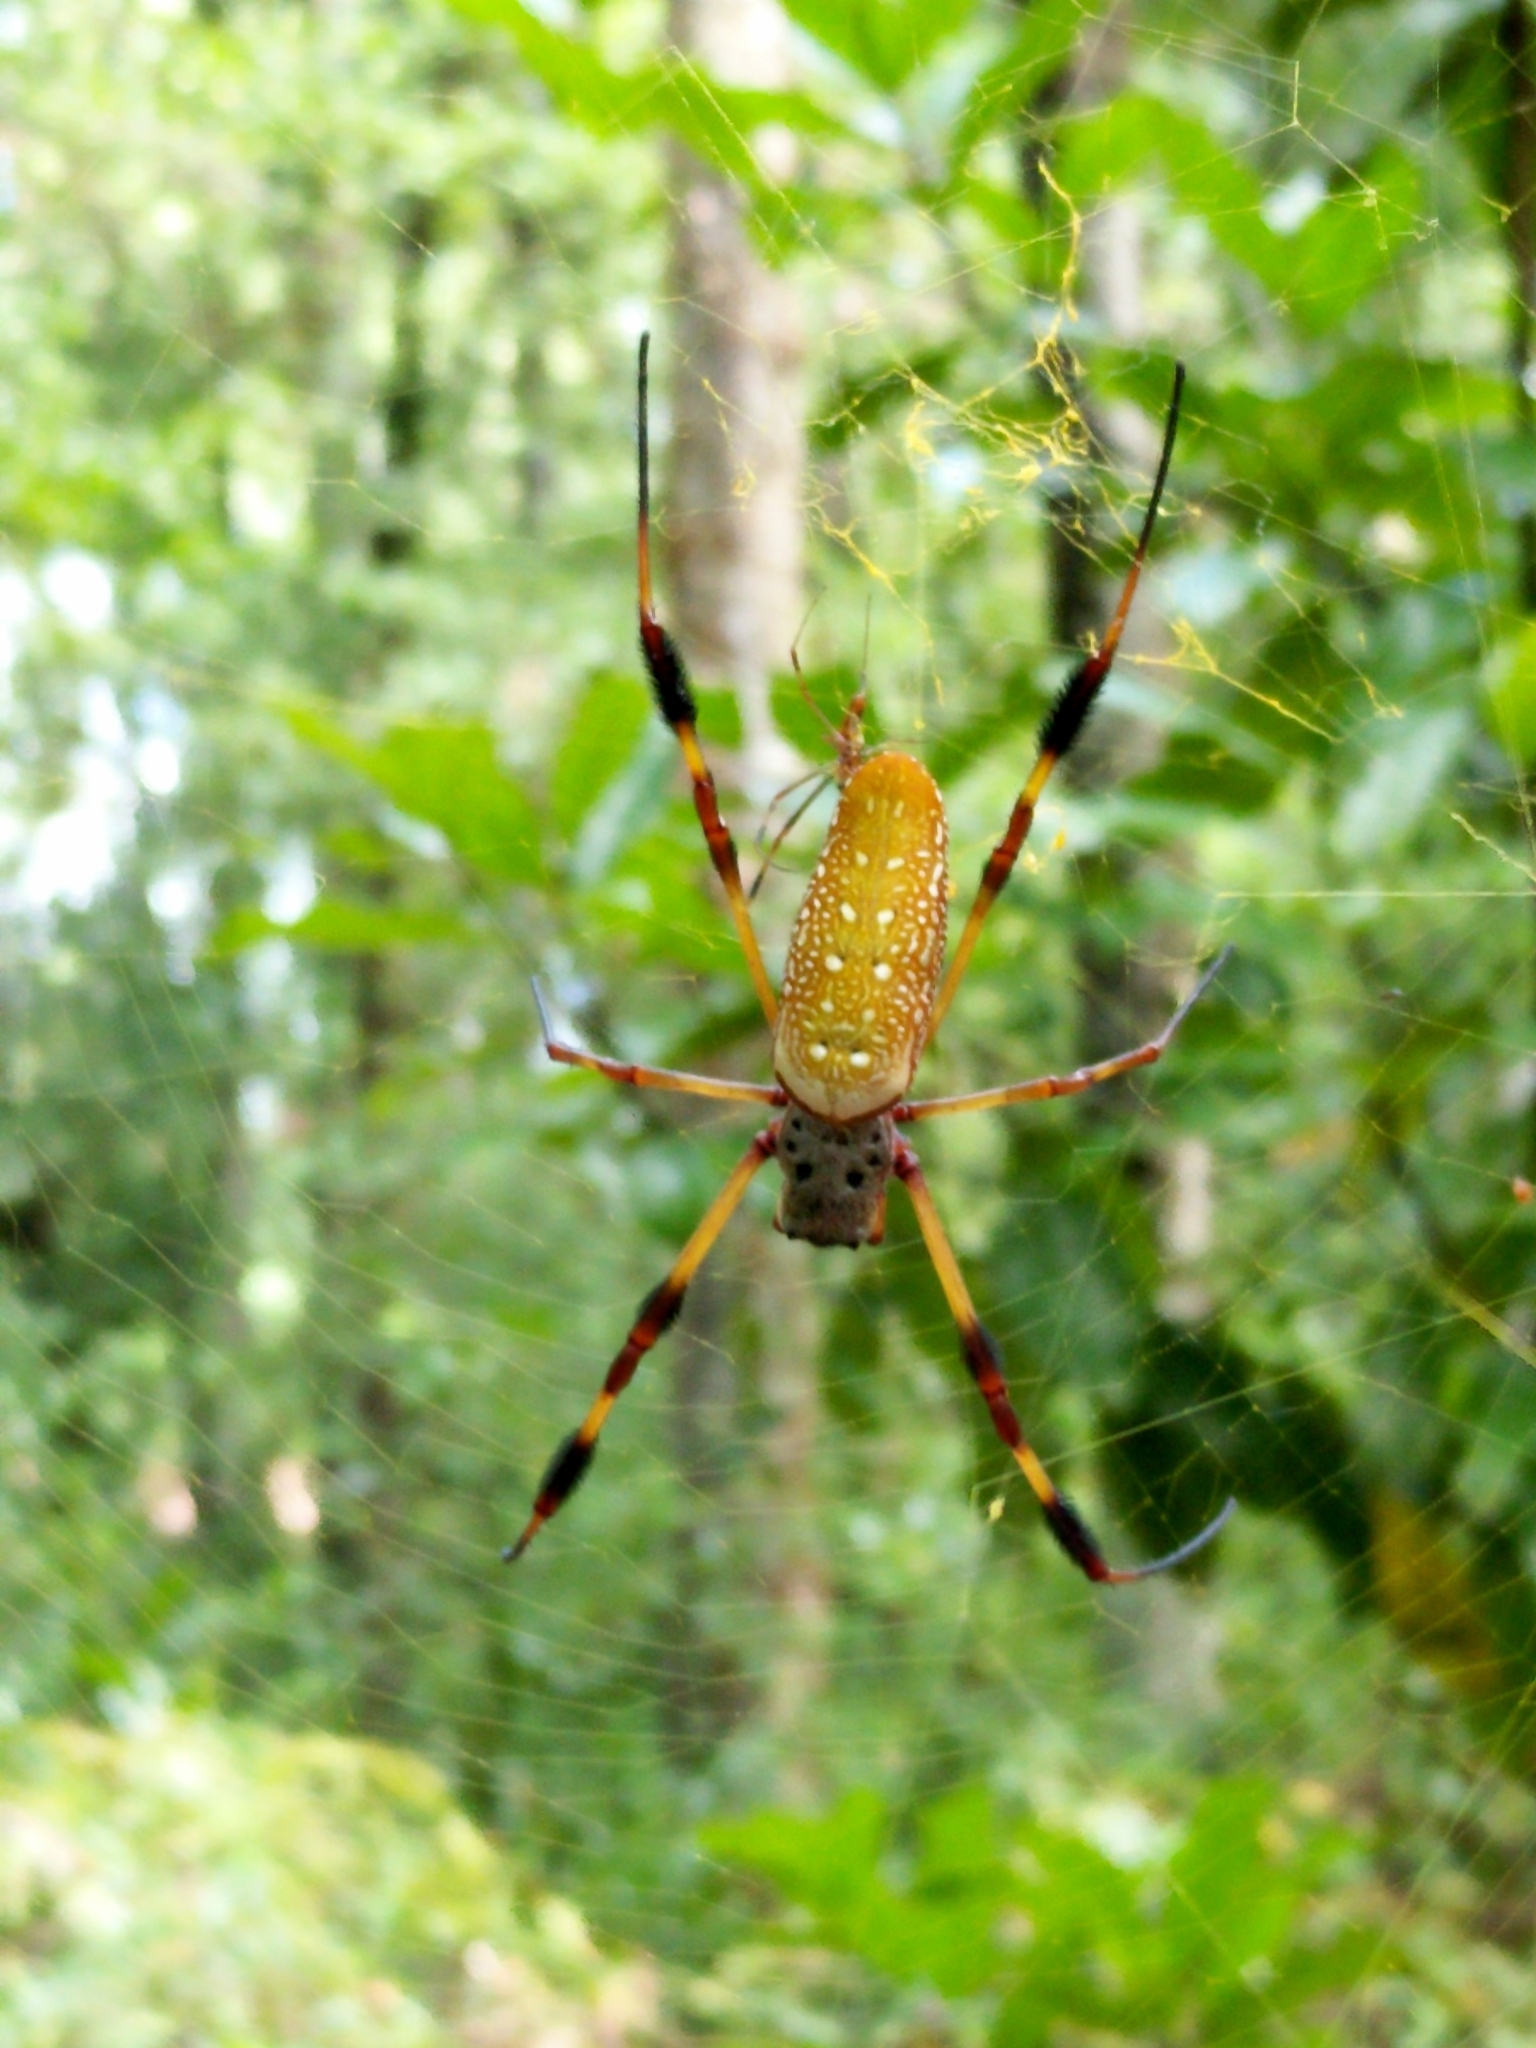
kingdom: Animalia
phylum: Arthropoda
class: Arachnida
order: Araneae
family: Araneidae
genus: Trichonephila
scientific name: Trichonephila clavipes
